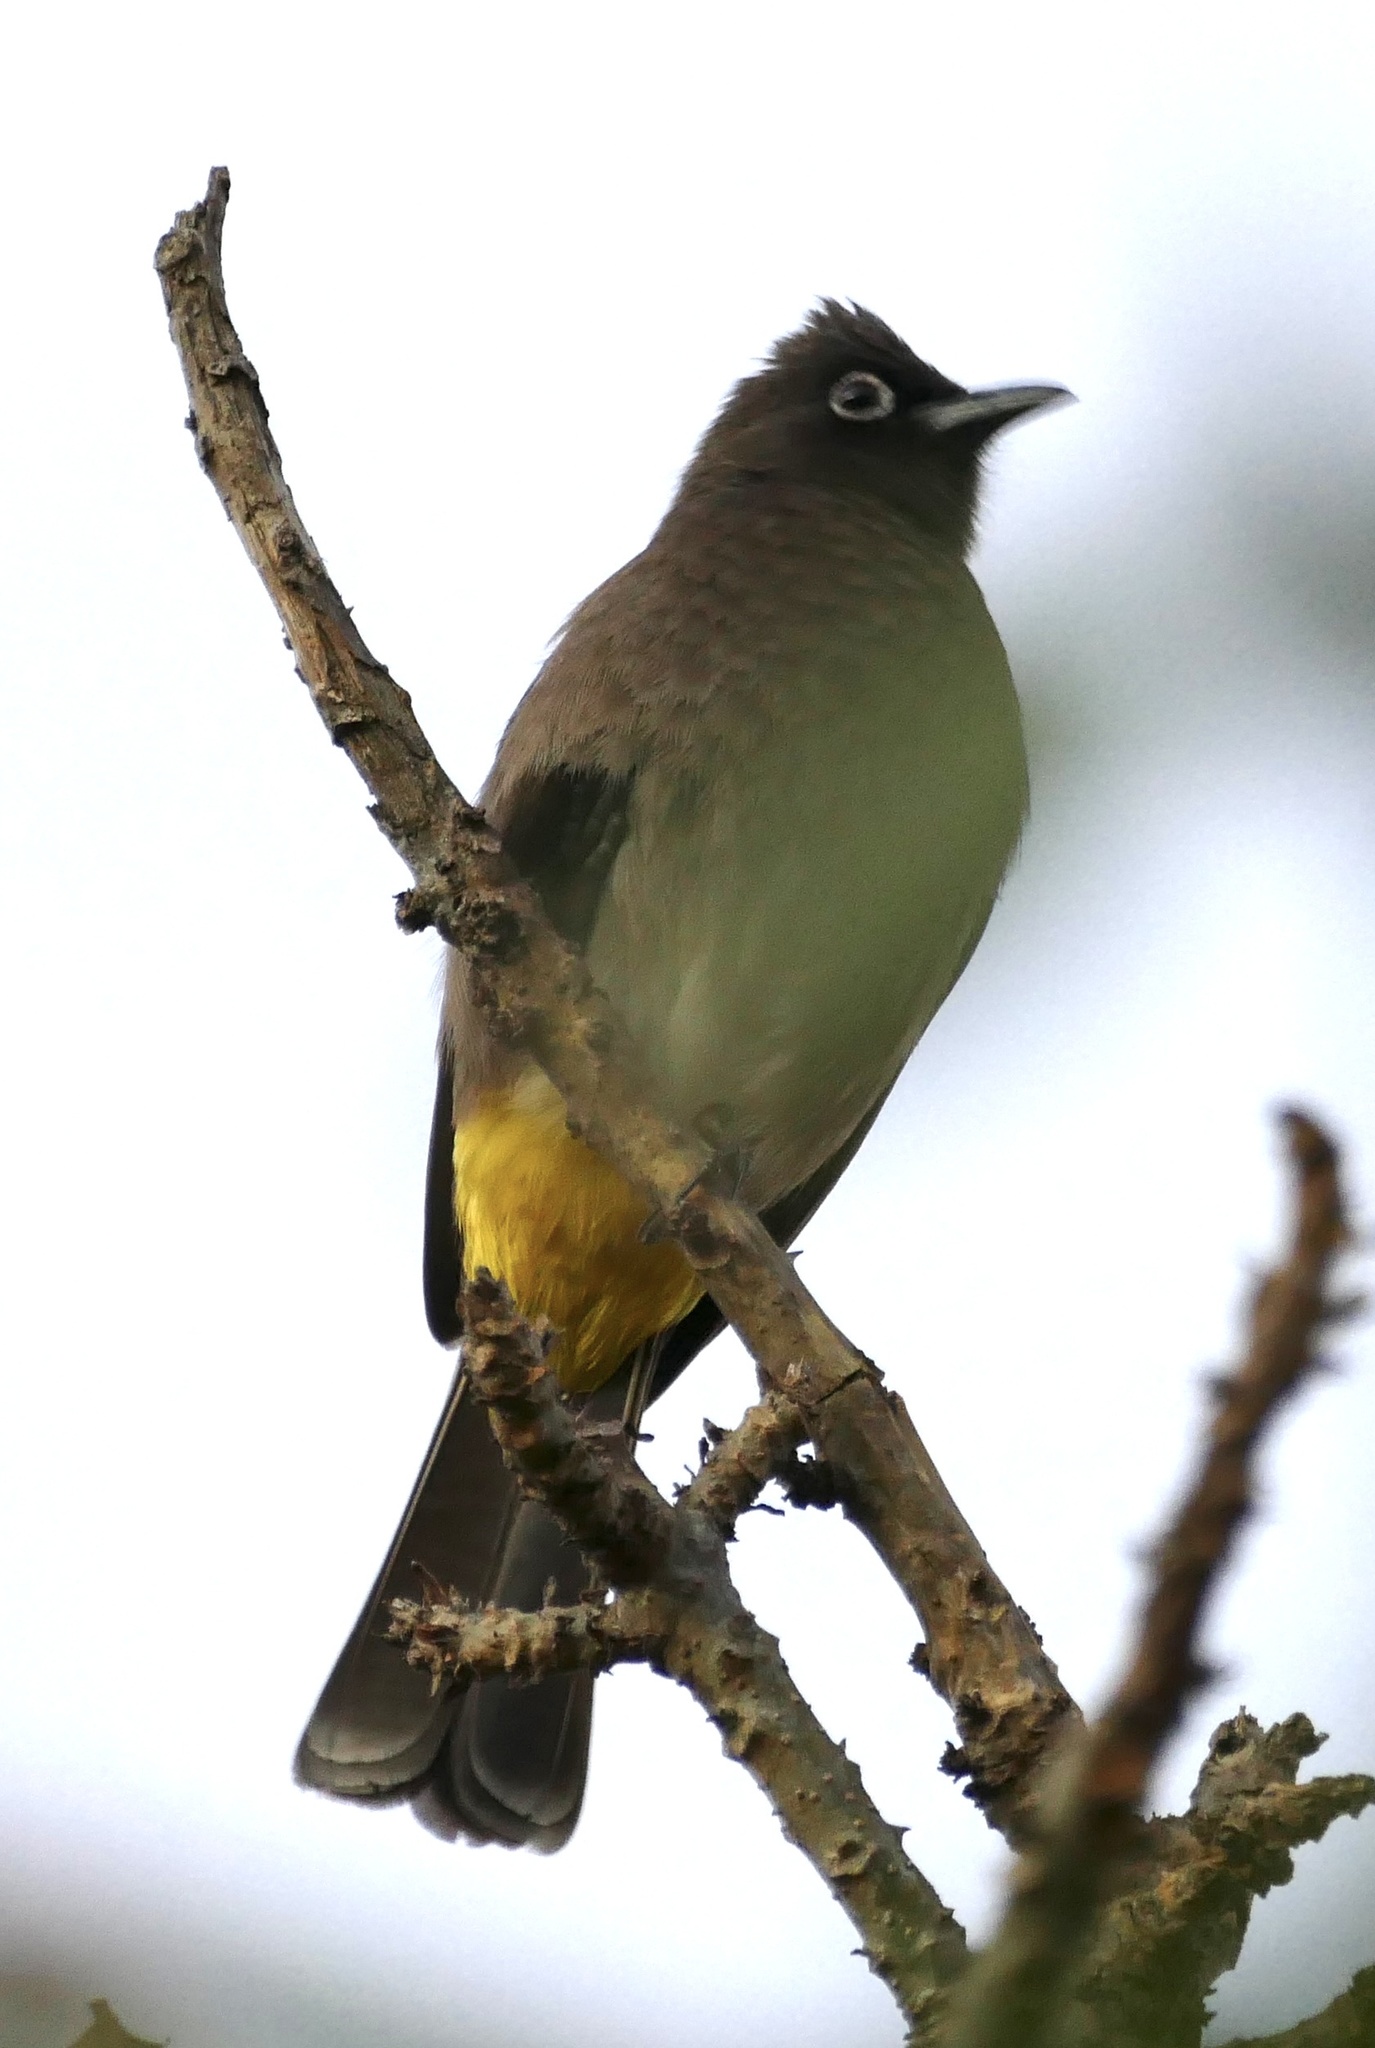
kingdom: Animalia
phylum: Chordata
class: Aves
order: Passeriformes
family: Pycnonotidae
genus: Pycnonotus
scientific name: Pycnonotus capensis
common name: Cape bulbul
